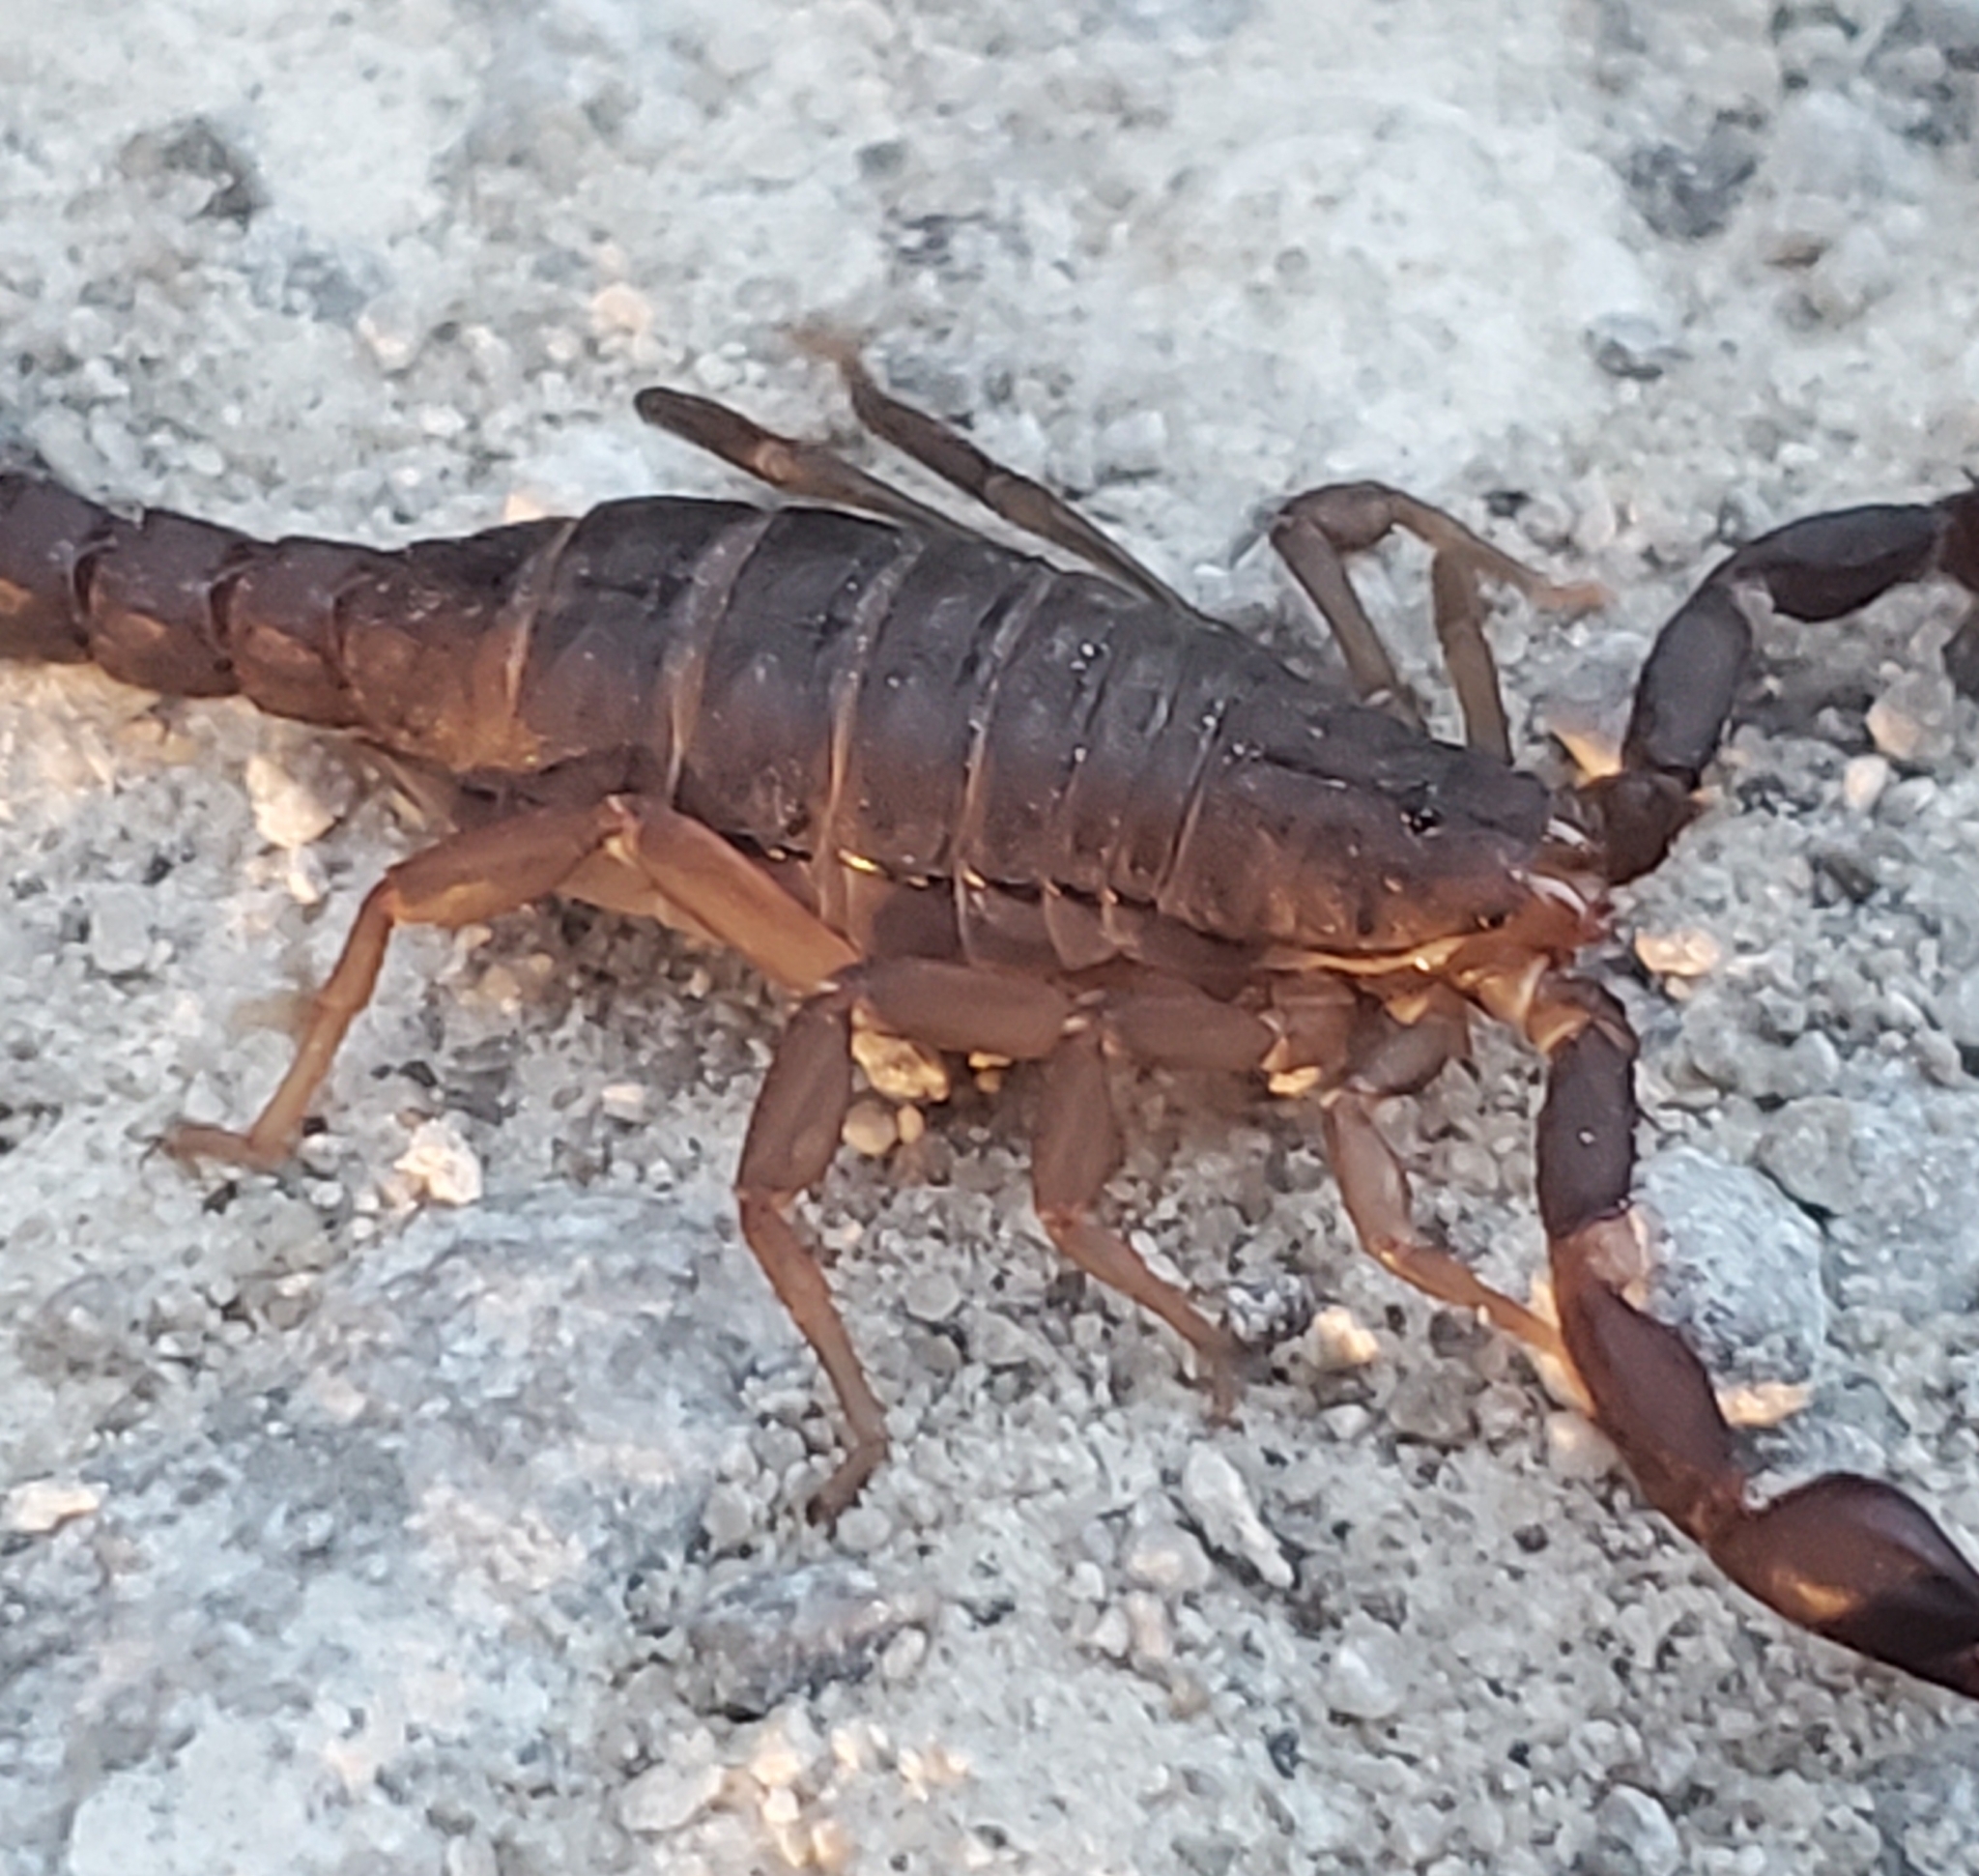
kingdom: Animalia
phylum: Arthropoda
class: Arachnida
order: Scorpiones
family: Vaejovidae
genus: Vaejovis
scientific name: Vaejovis carolinianus
